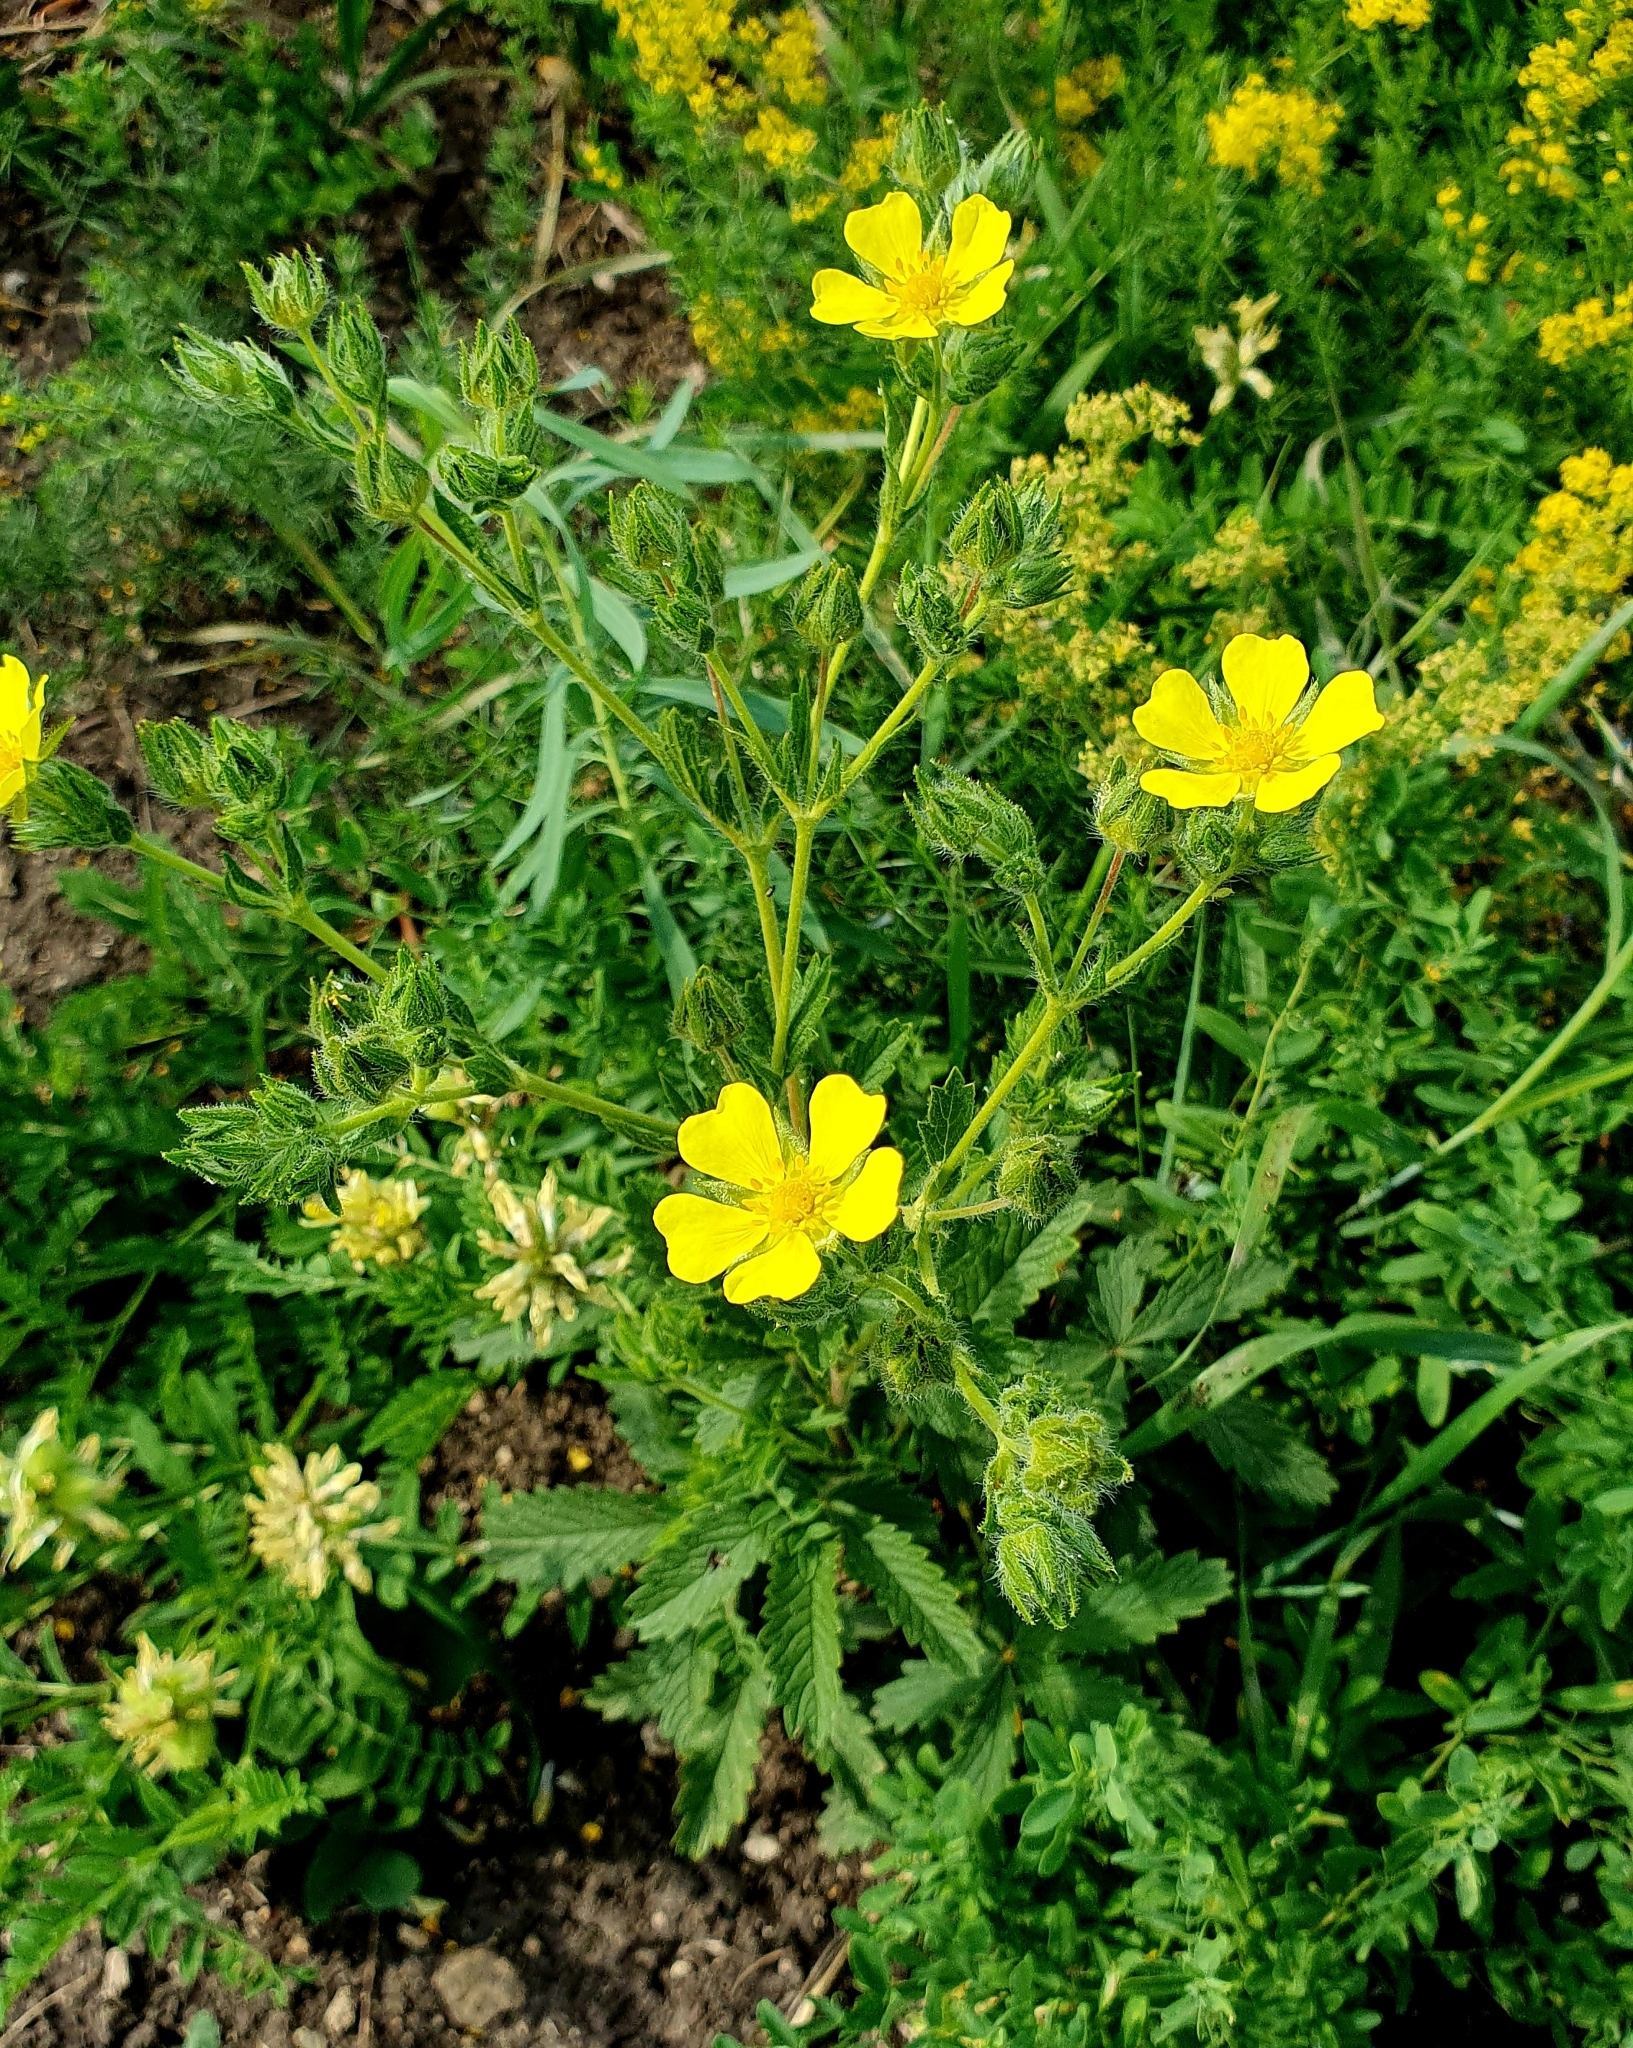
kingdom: Plantae
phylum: Tracheophyta
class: Magnoliopsida
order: Rosales
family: Rosaceae
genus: Potentilla
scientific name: Potentilla recta
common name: Sulphur cinquefoil
